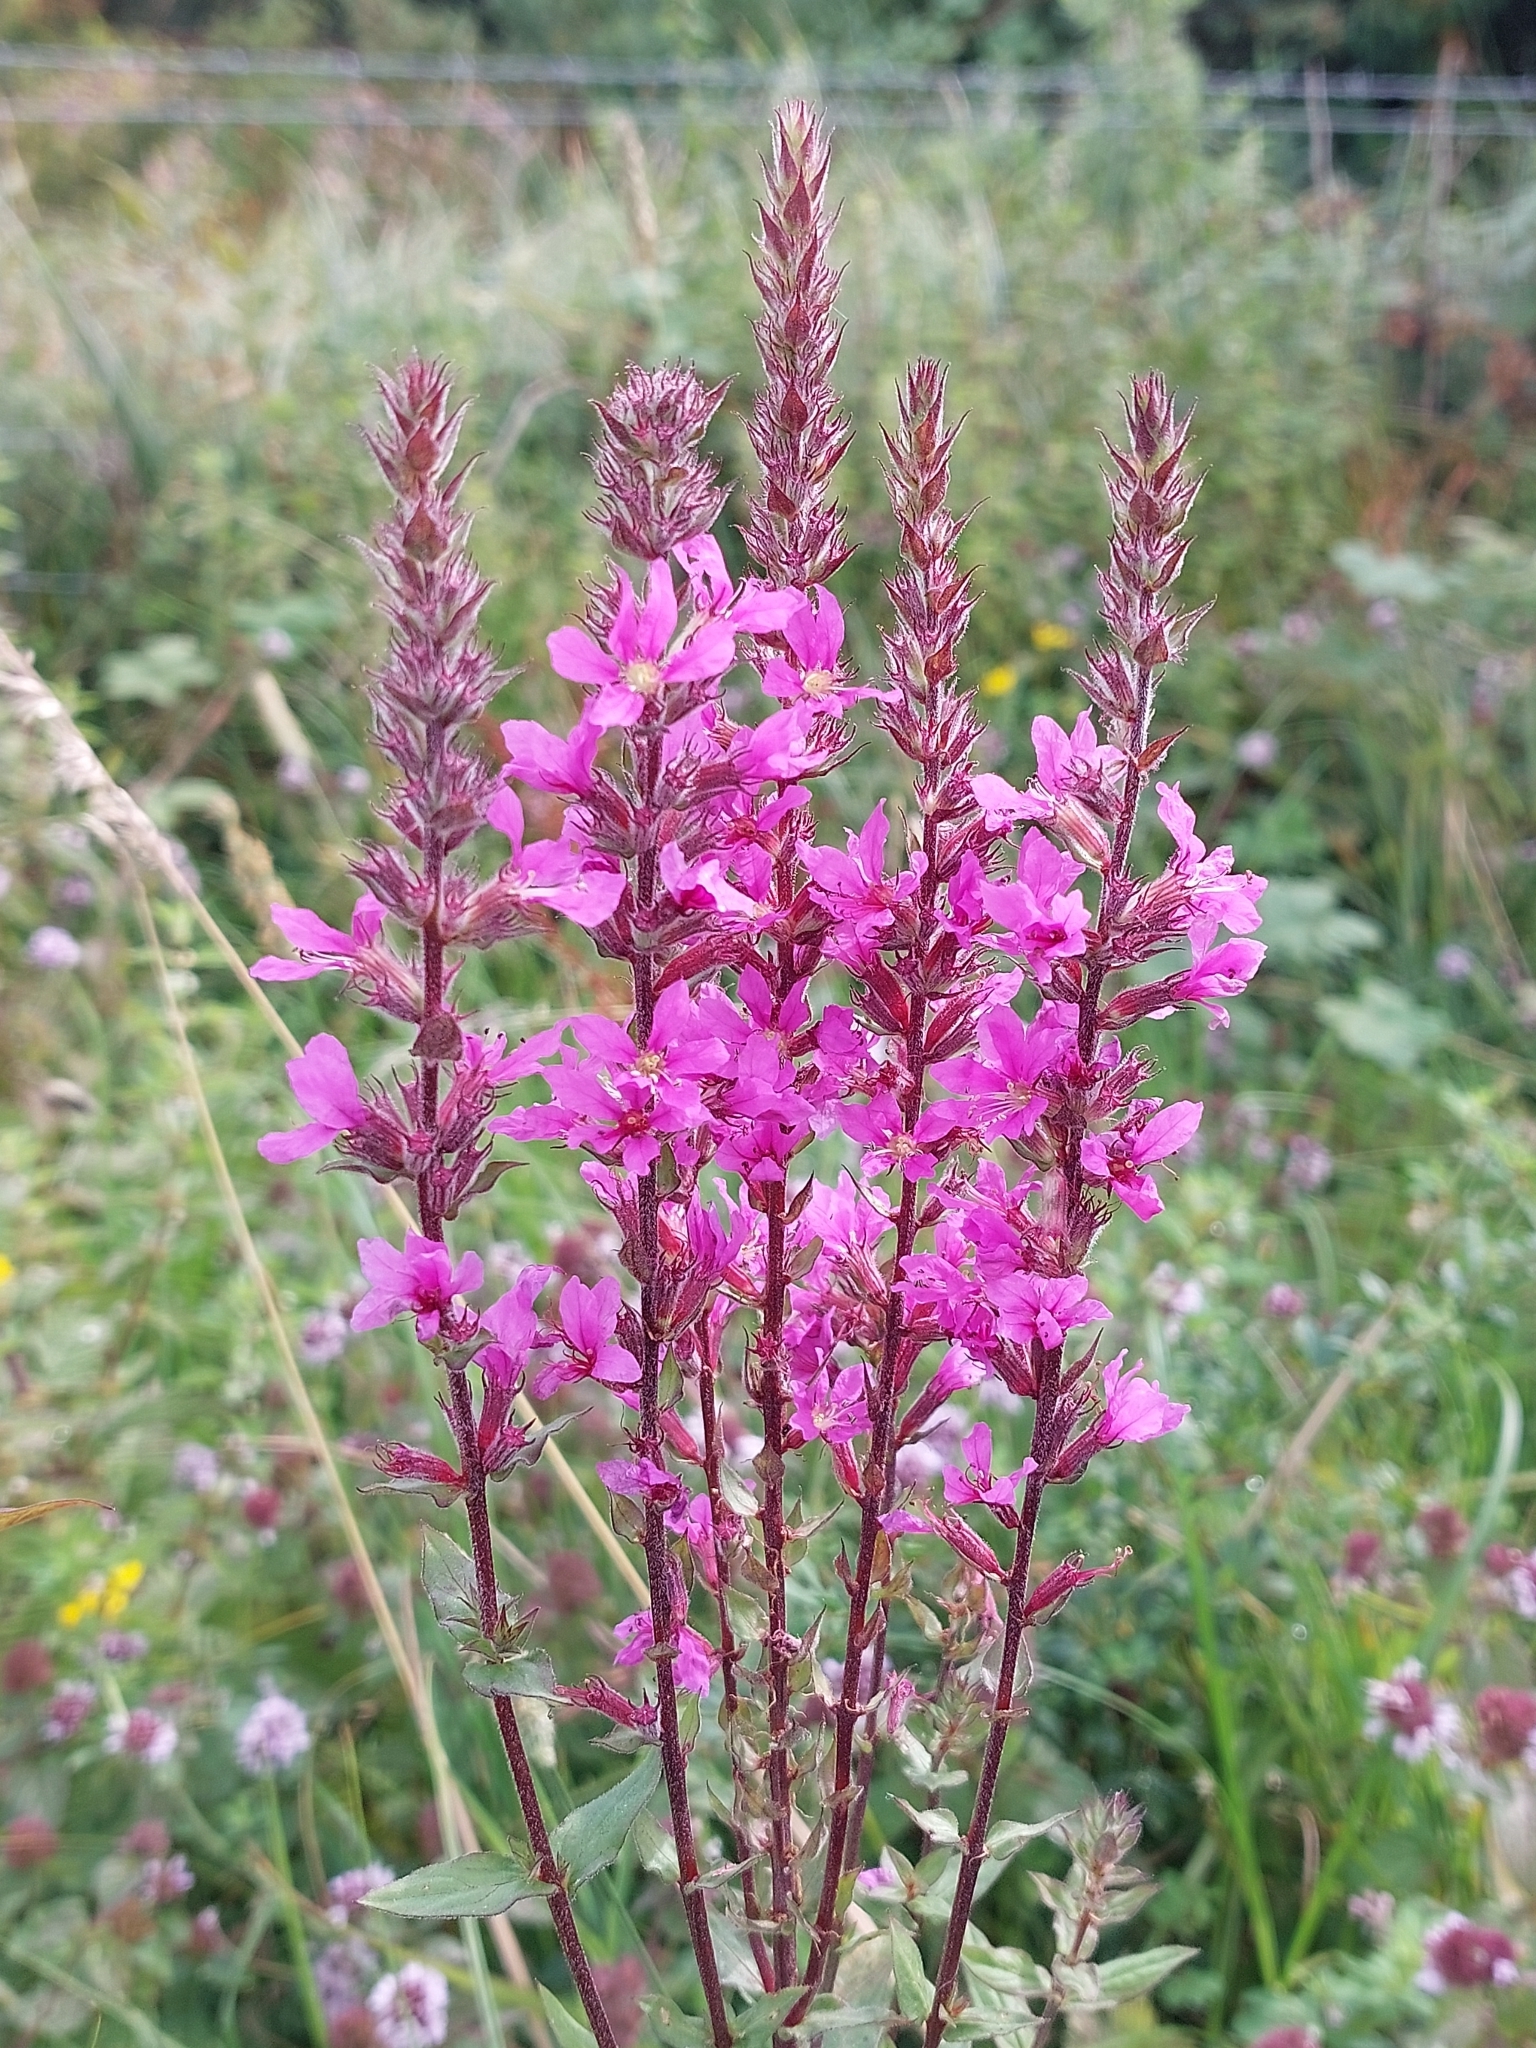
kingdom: Plantae
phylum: Tracheophyta
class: Magnoliopsida
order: Myrtales
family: Lythraceae
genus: Lythrum
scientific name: Lythrum salicaria
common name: Purple loosestrife
